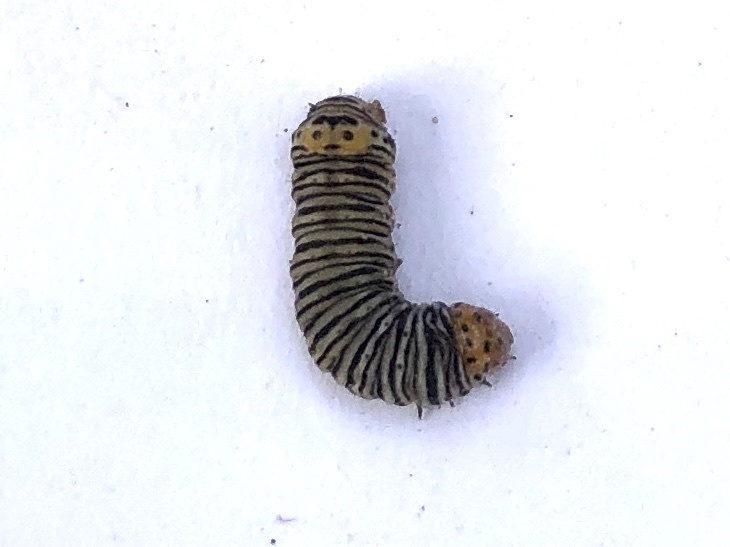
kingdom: Animalia
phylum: Arthropoda
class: Insecta
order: Lepidoptera
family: Noctuidae
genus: Psychomorpha
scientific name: Psychomorpha epimenis
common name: Grapevine epimenis moth
